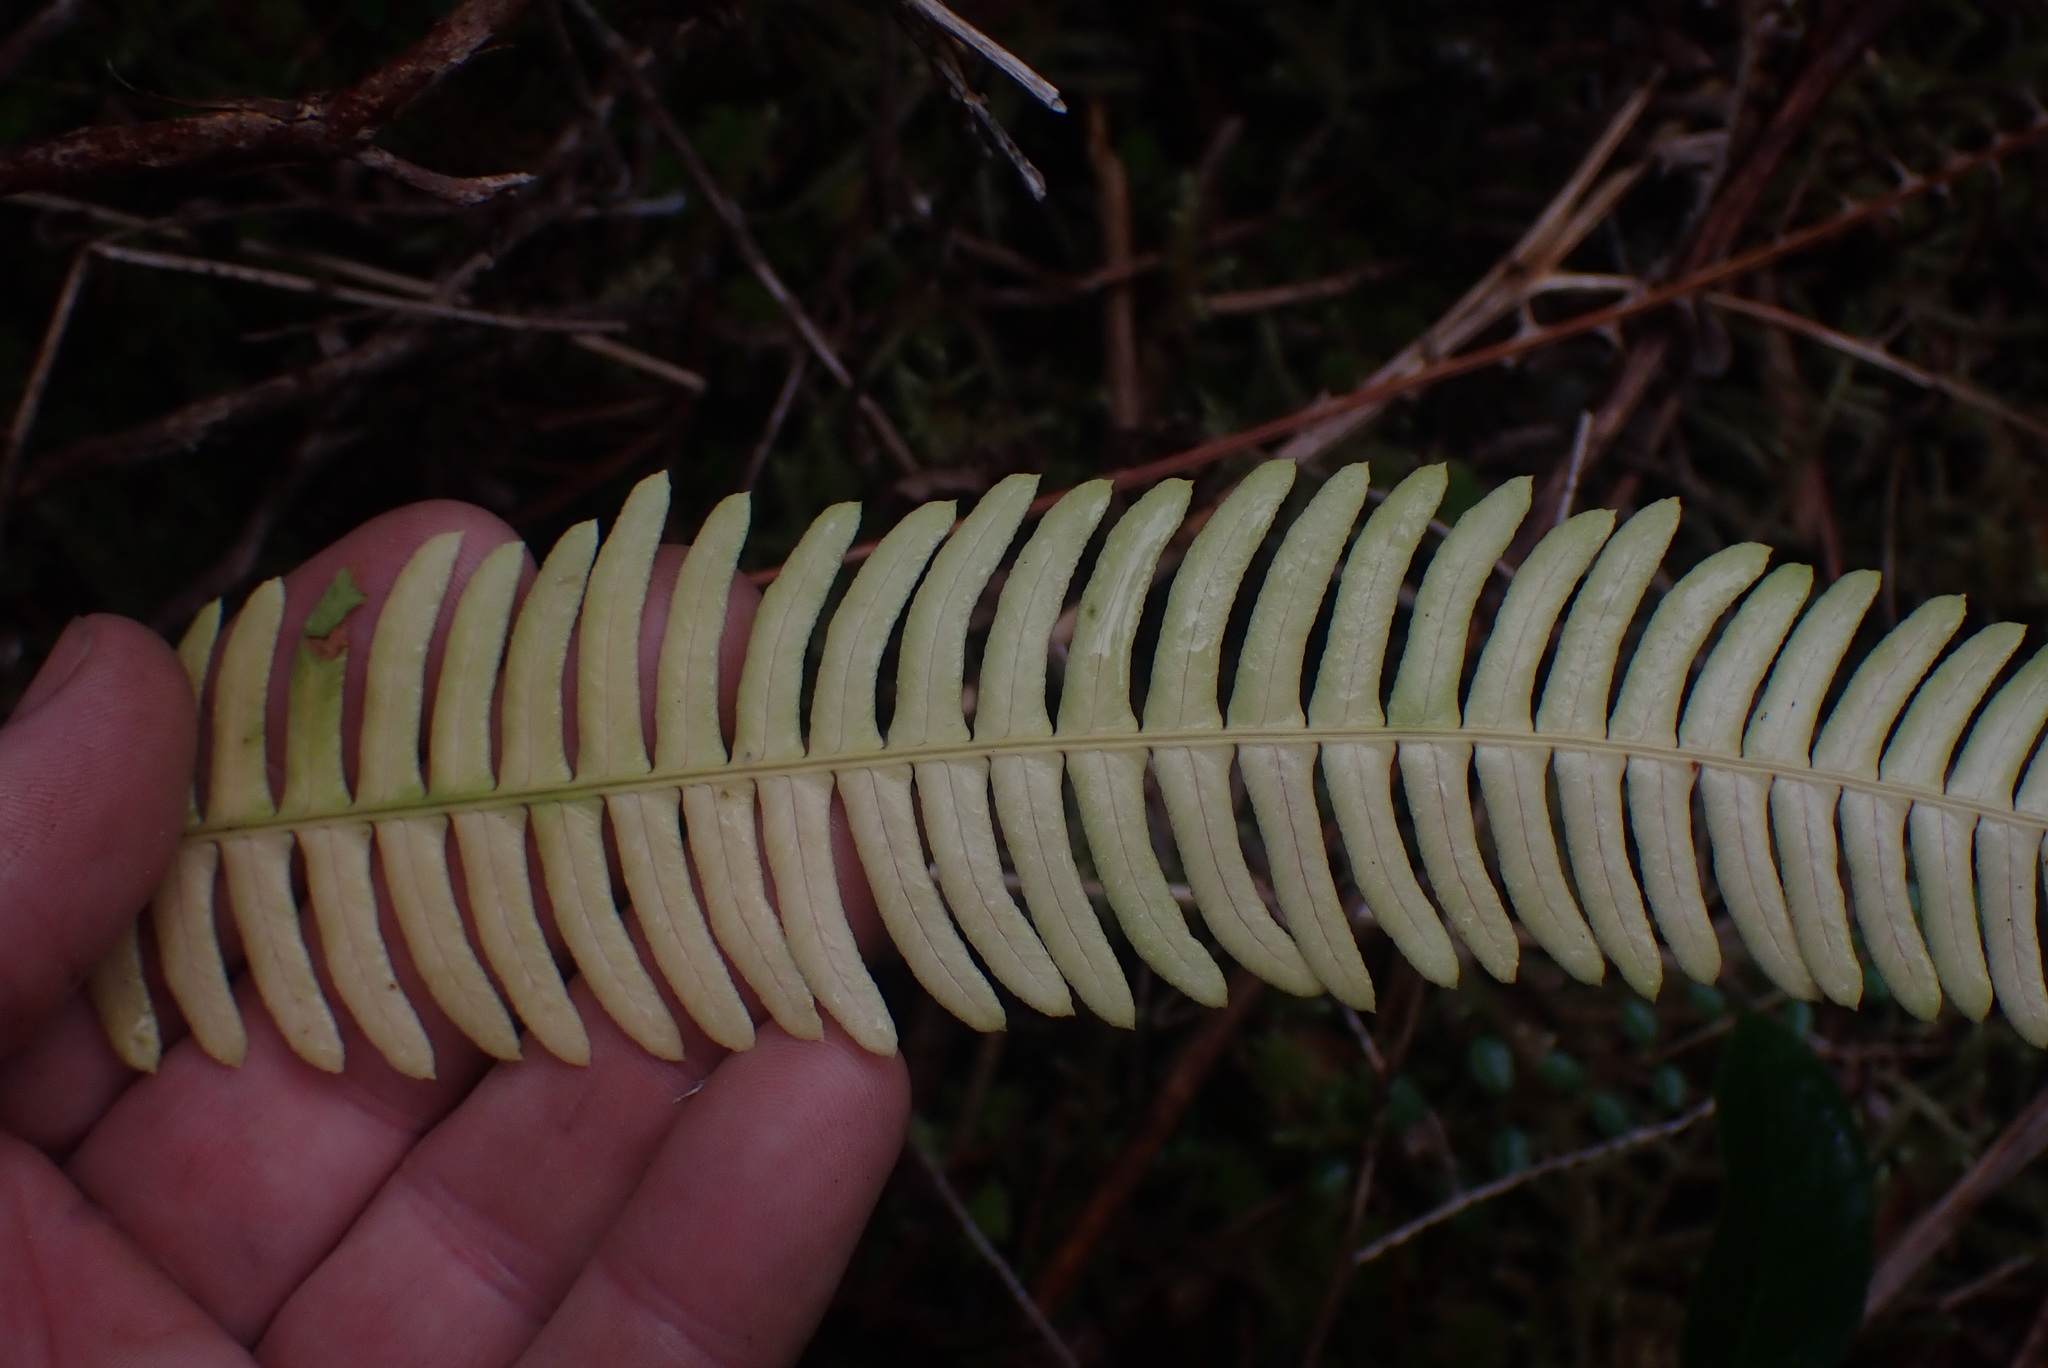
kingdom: Plantae
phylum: Tracheophyta
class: Polypodiopsida
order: Polypodiales
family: Blechnaceae
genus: Struthiopteris
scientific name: Struthiopteris spicant
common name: Deer fern
